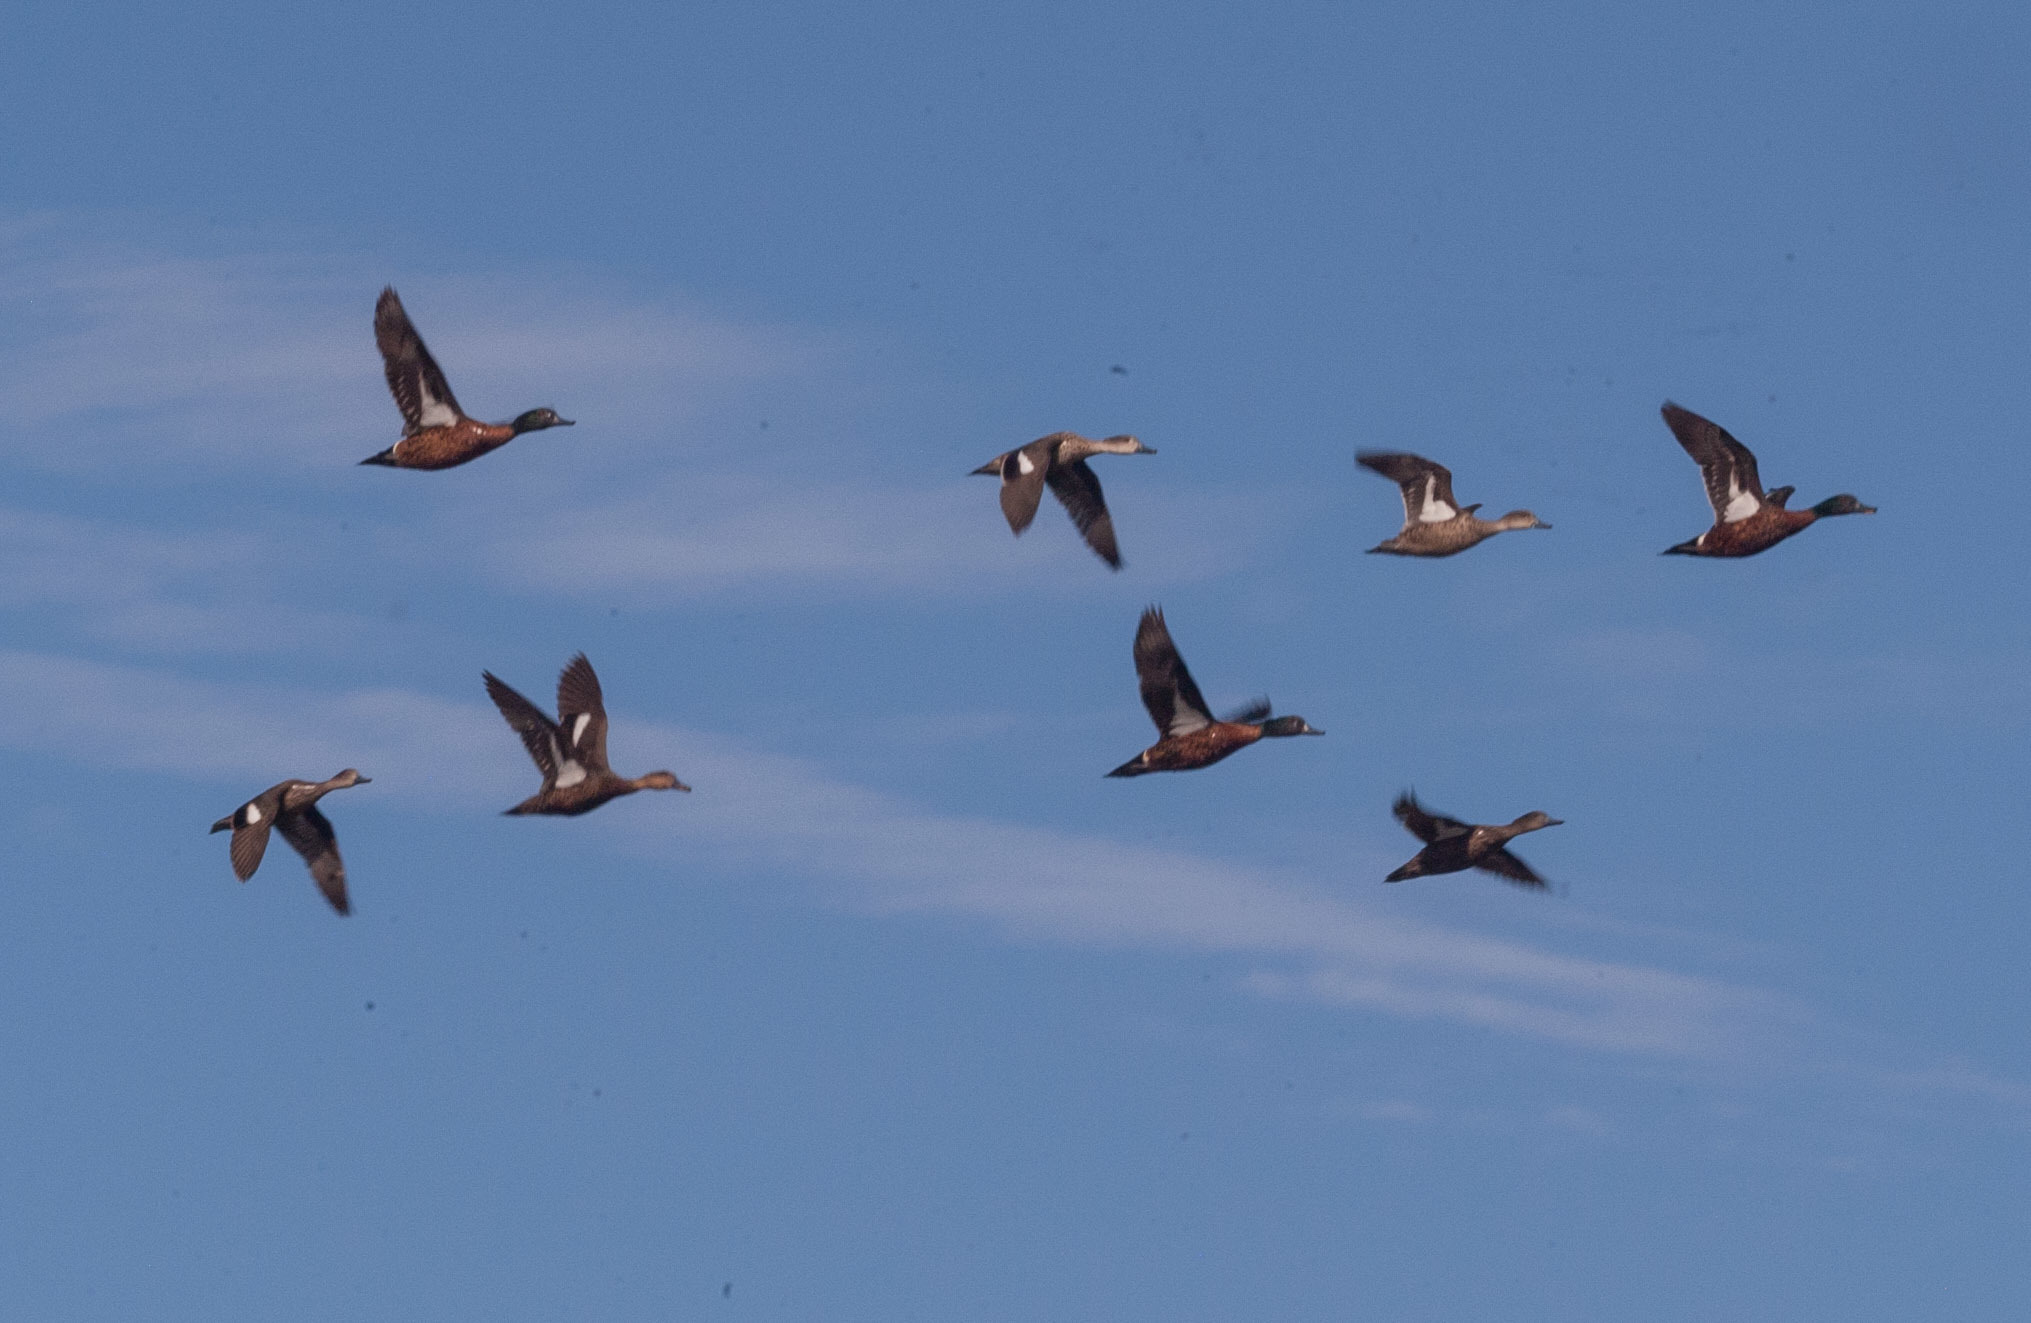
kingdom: Animalia
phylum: Chordata
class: Aves
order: Anseriformes
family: Anatidae
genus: Anas
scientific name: Anas castanea
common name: Chestnut teal
